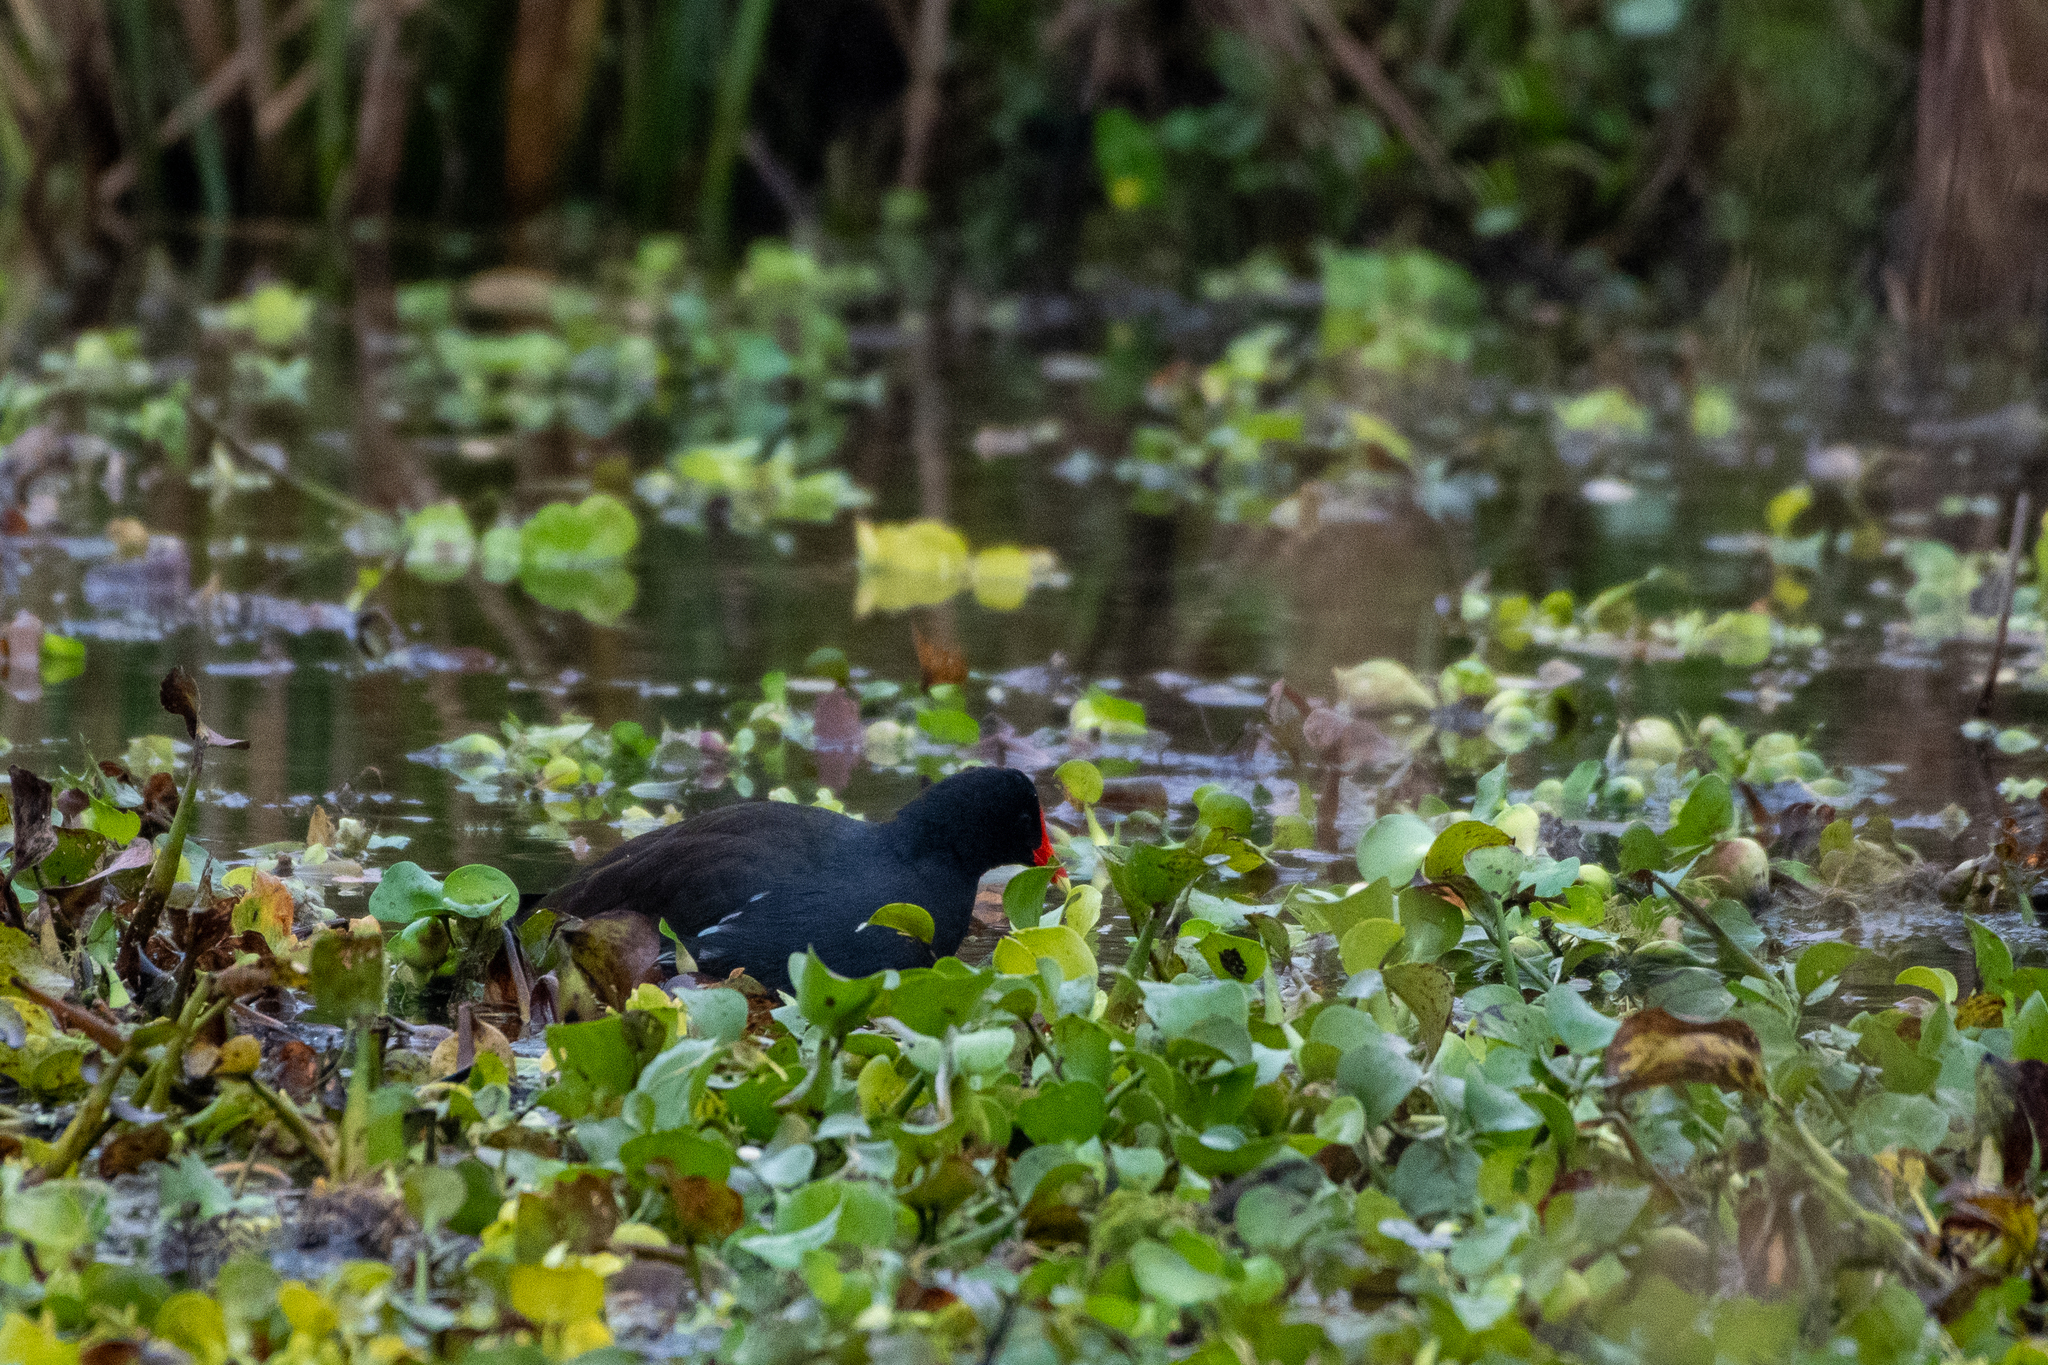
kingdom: Animalia
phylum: Chordata
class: Aves
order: Gruiformes
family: Rallidae
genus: Gallinula
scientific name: Gallinula chloropus
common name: Common moorhen
